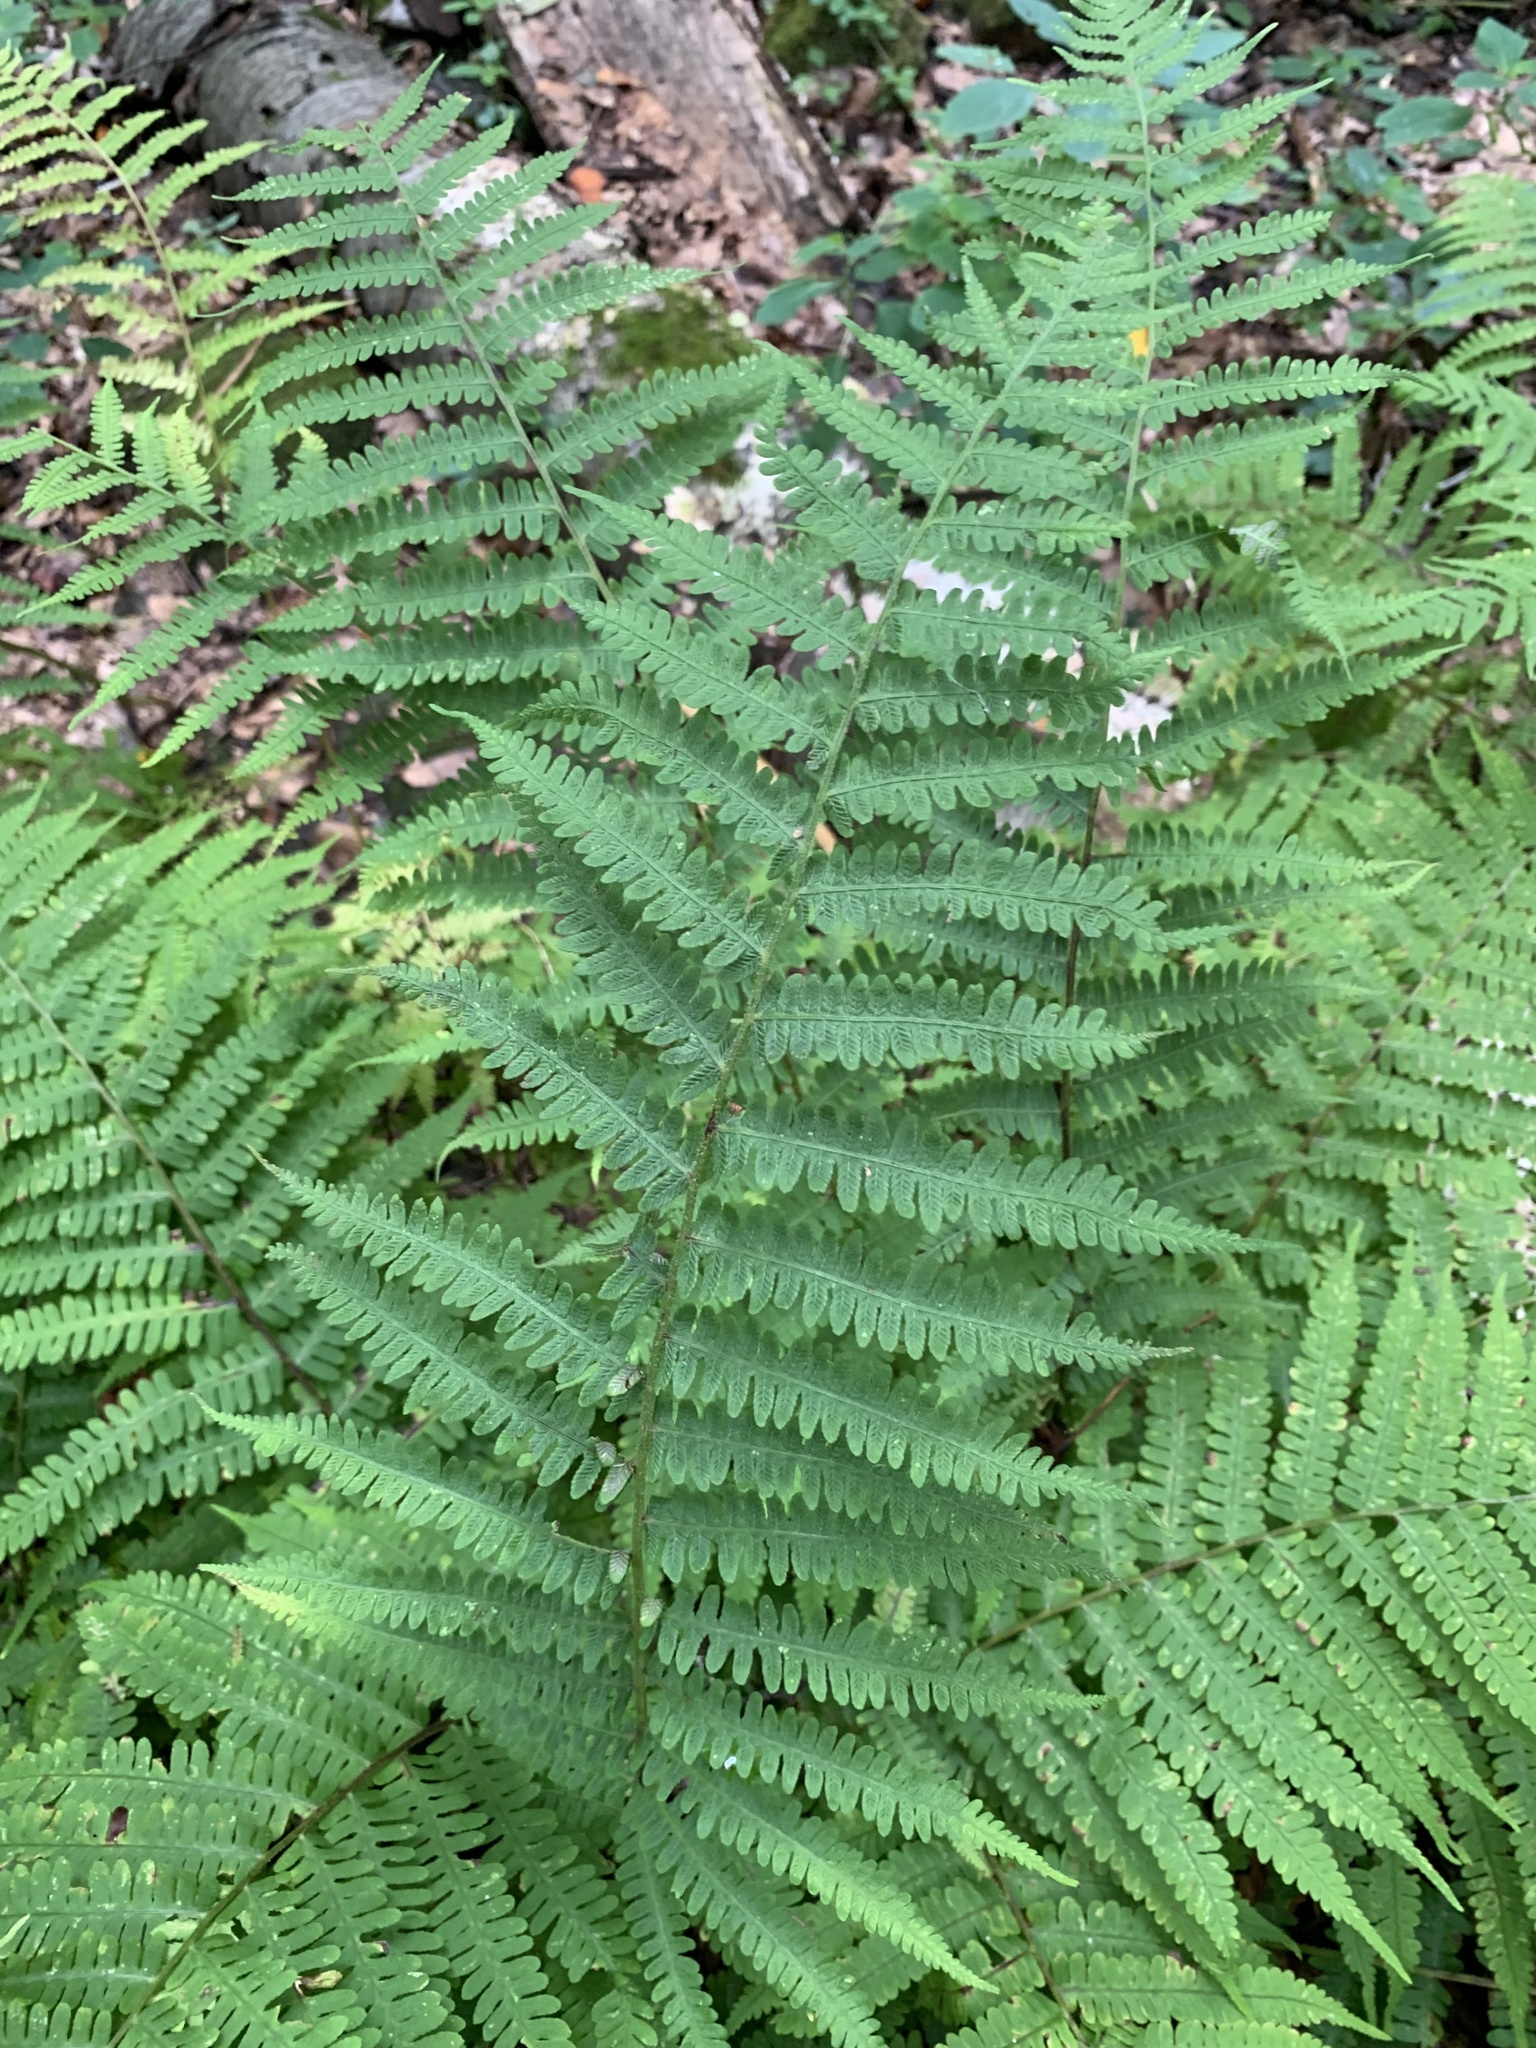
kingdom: Plantae
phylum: Tracheophyta
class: Polypodiopsida
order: Polypodiales
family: Athyriaceae
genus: Deparia
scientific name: Deparia acrostichoides
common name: Silver false spleenwort
